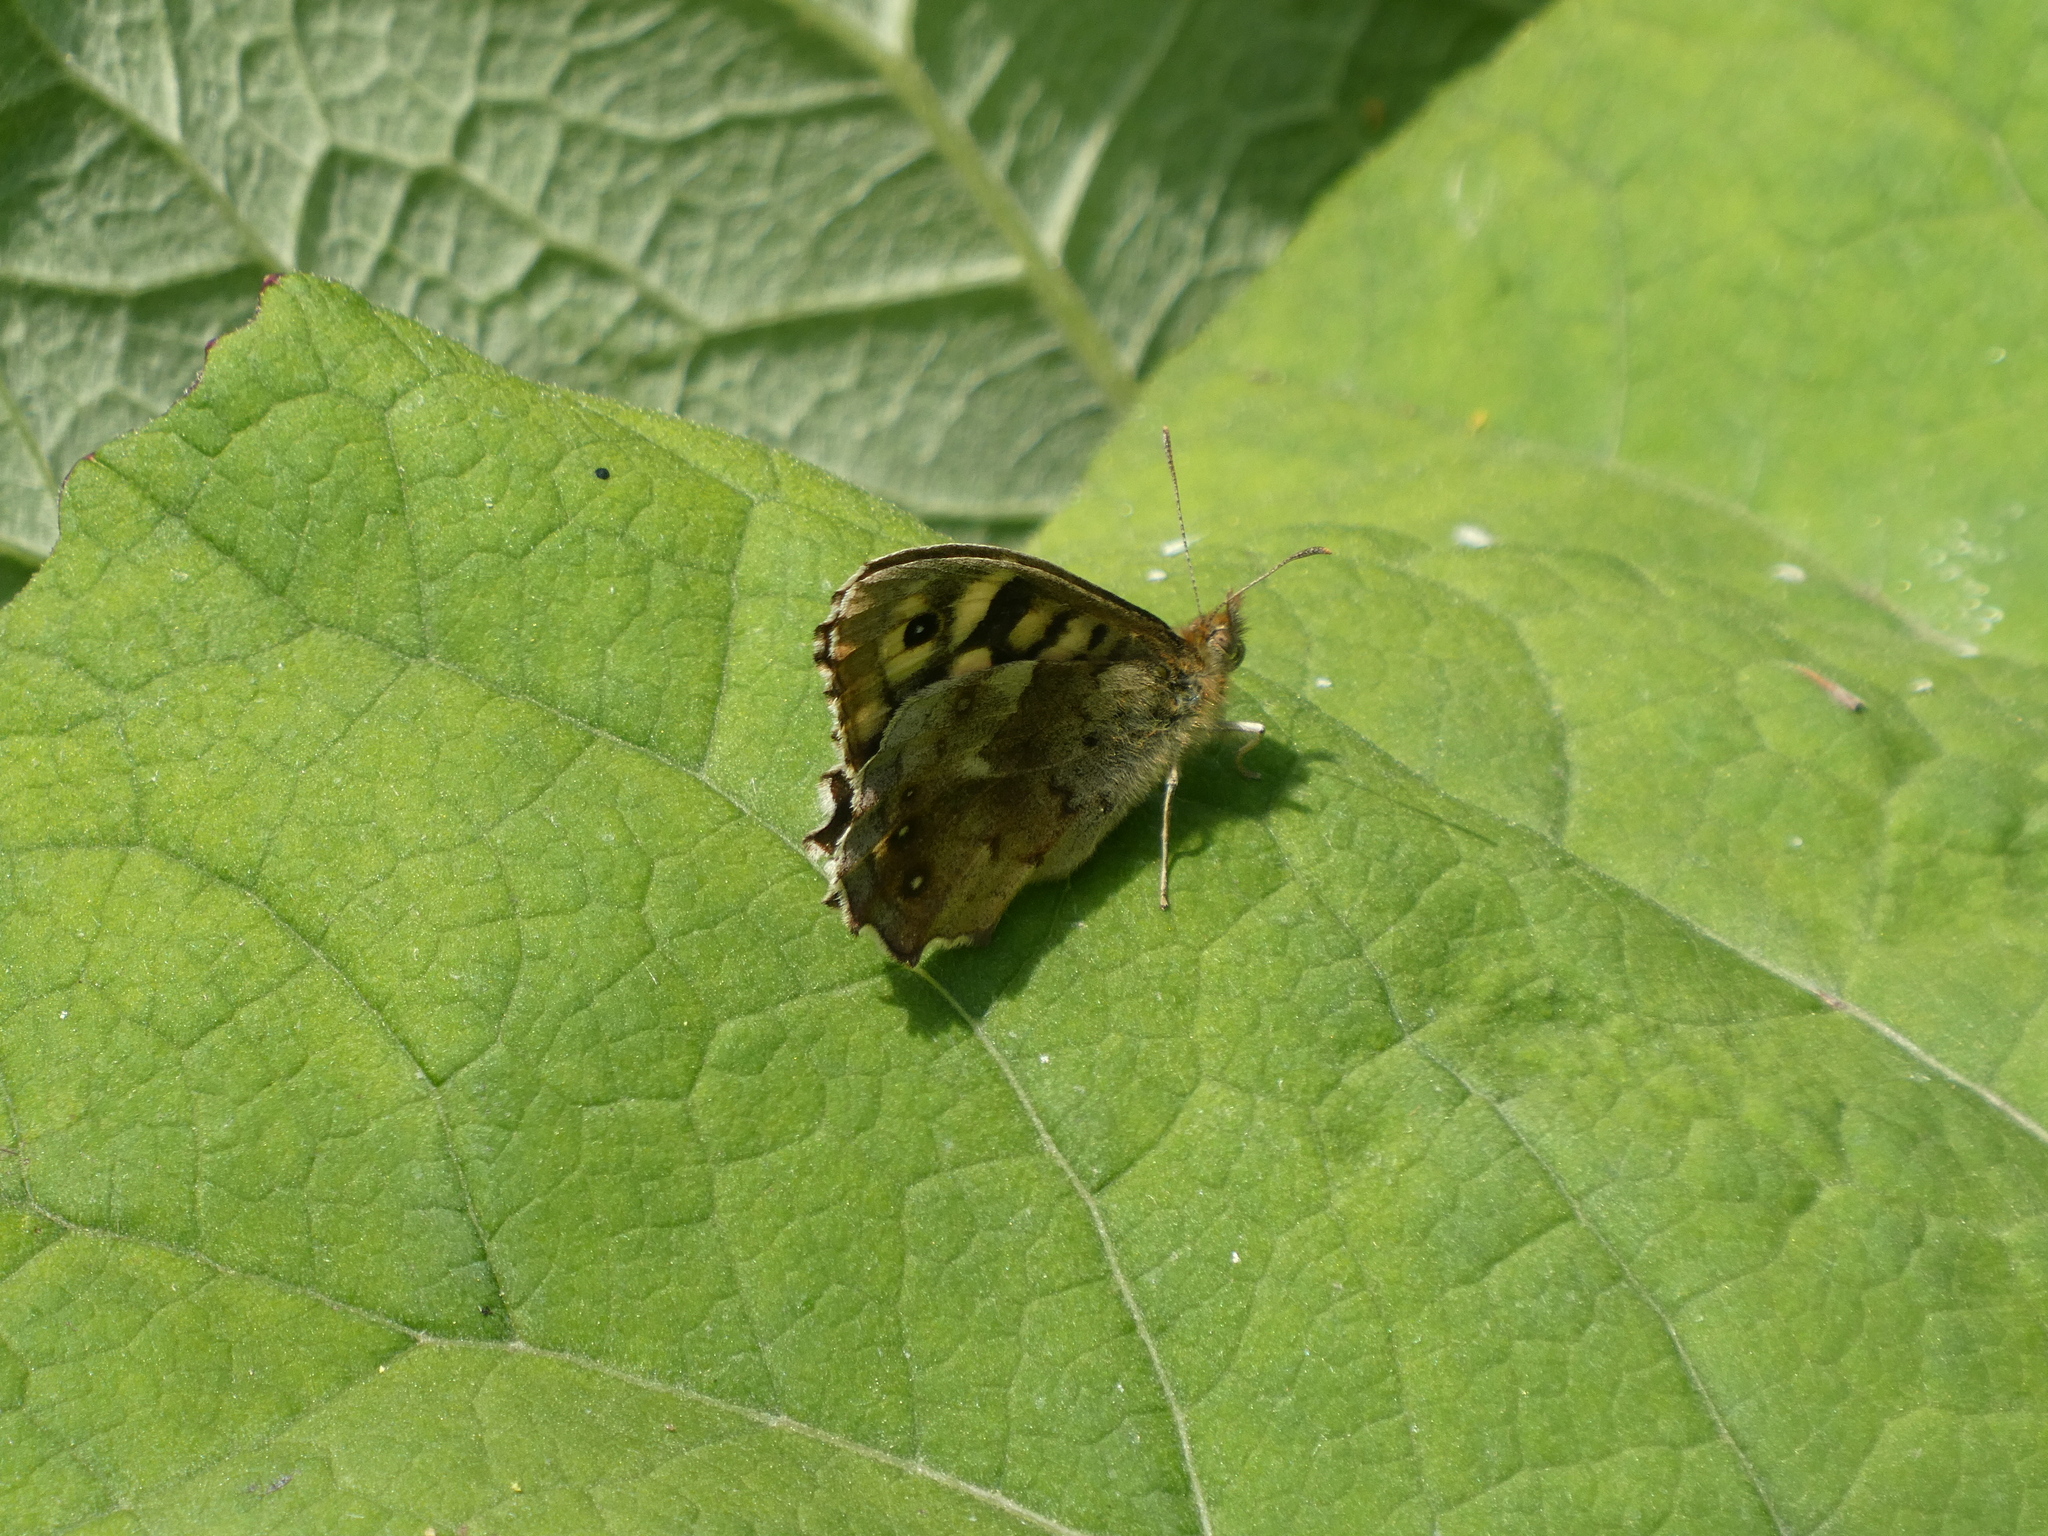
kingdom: Animalia
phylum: Arthropoda
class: Insecta
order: Lepidoptera
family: Nymphalidae
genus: Pararge
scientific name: Pararge aegeria
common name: Speckled wood
